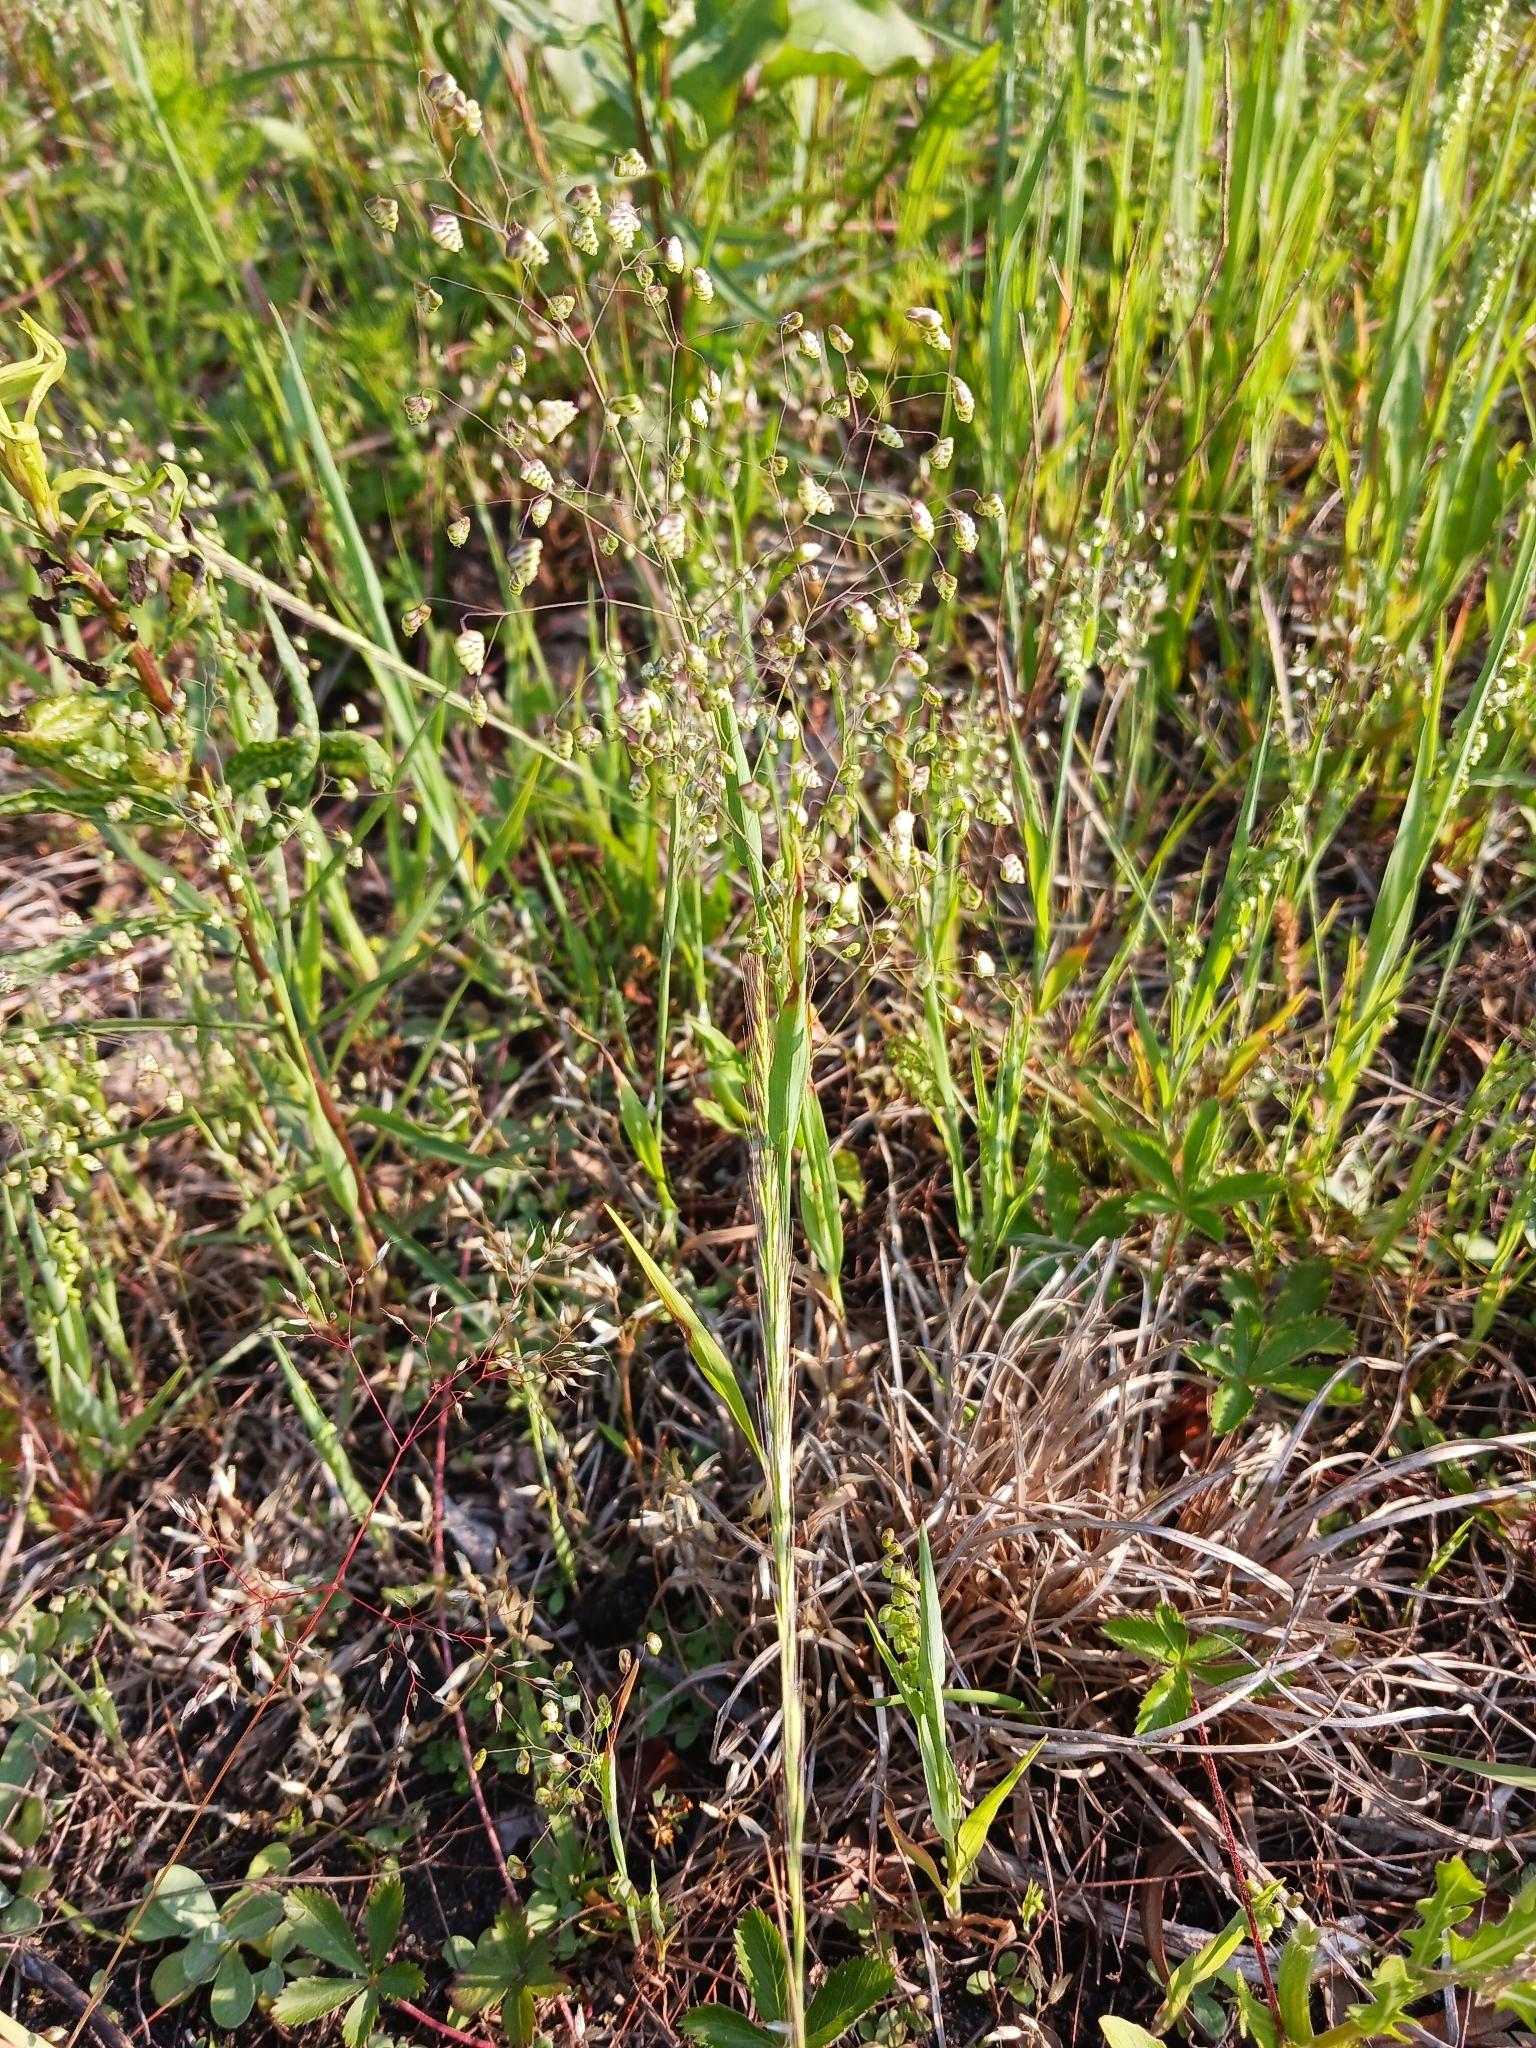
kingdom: Plantae
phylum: Tracheophyta
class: Liliopsida
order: Poales
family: Poaceae
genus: Briza
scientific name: Briza minor
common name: Lesser quaking-grass
